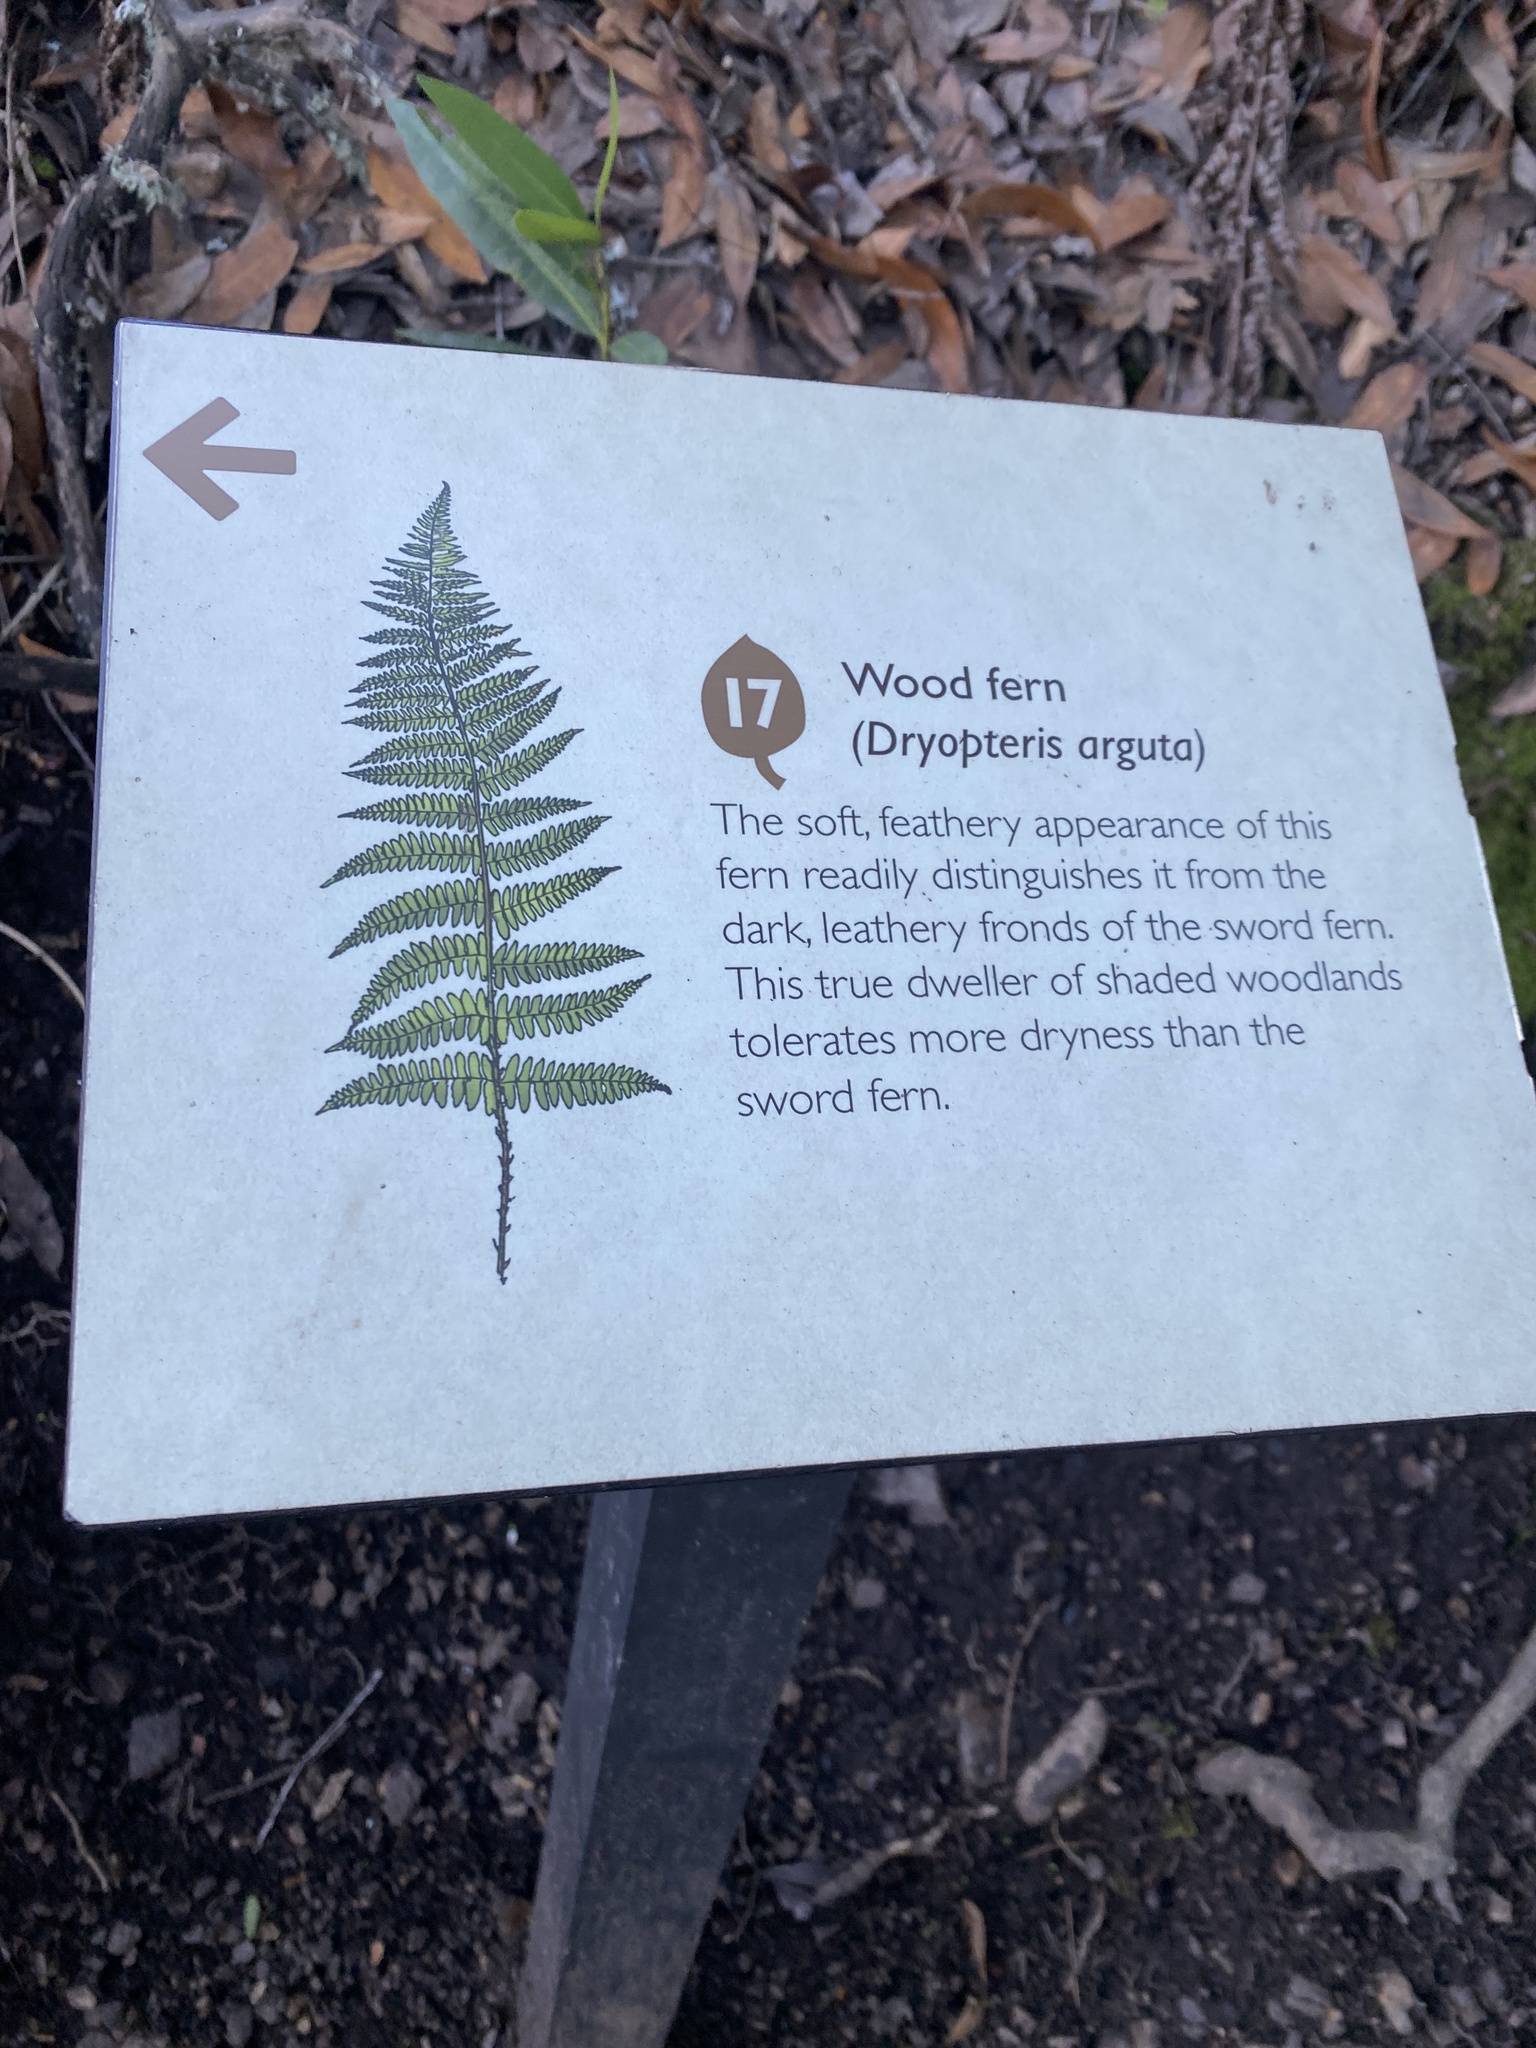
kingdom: Plantae
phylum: Tracheophyta
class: Polypodiopsida
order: Polypodiales
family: Dryopteridaceae
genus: Dryopteris
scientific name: Dryopteris arguta
